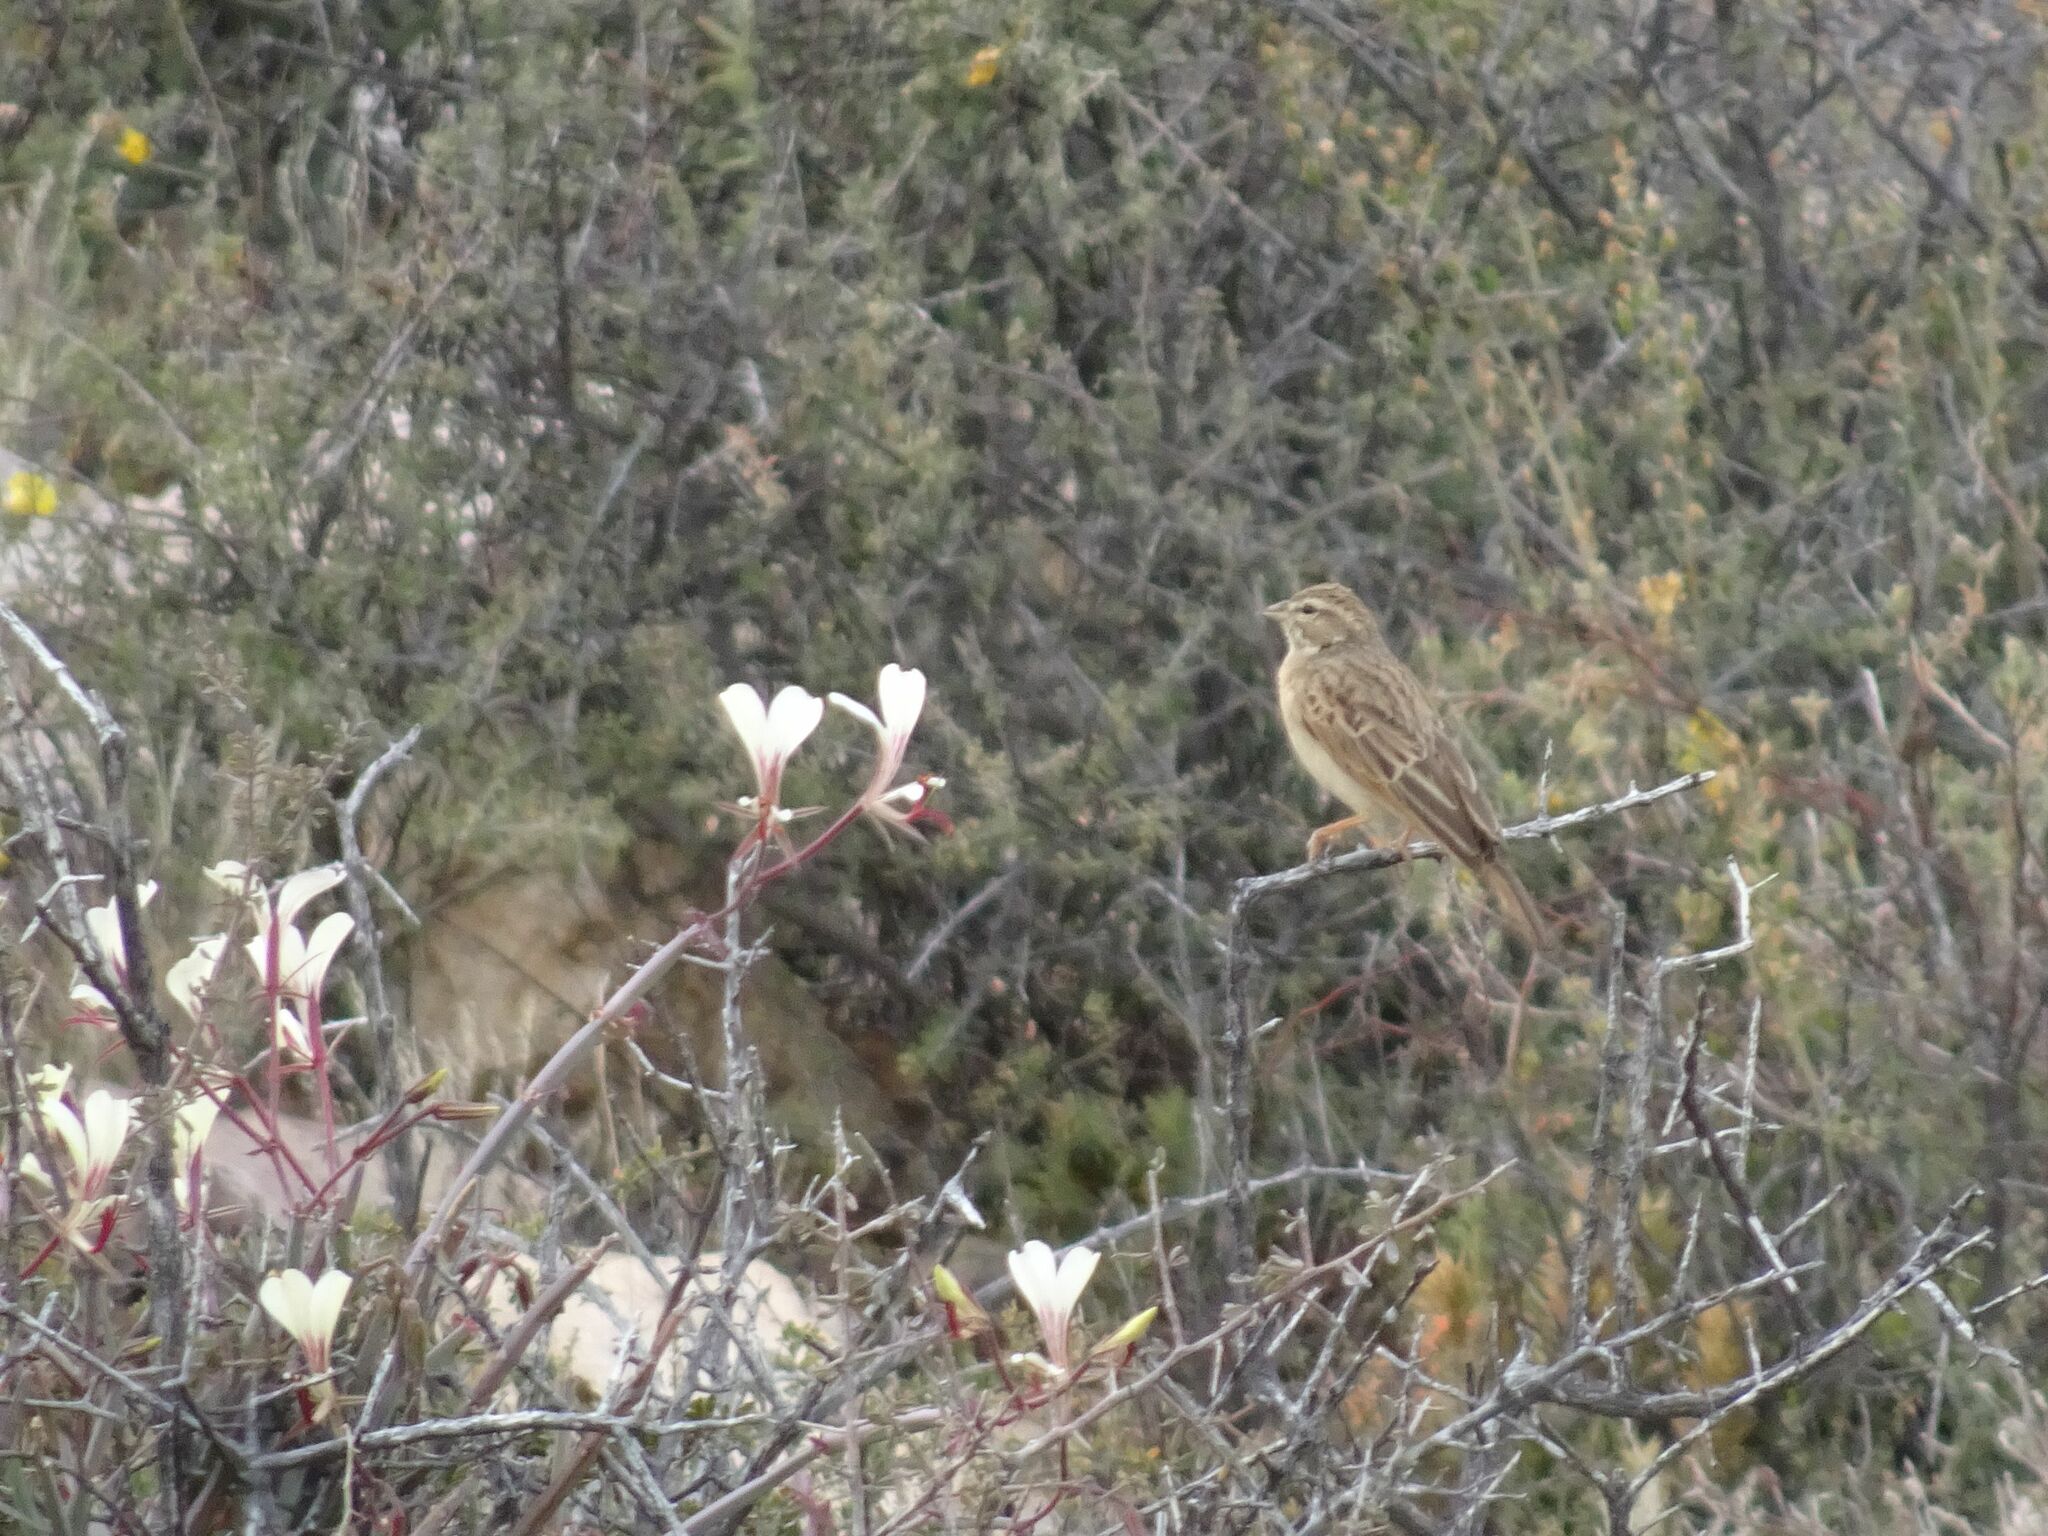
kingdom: Animalia
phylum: Chordata
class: Aves
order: Passeriformes
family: Emberizidae
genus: Emberiza
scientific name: Emberiza impetuani
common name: Lark-like bunting
